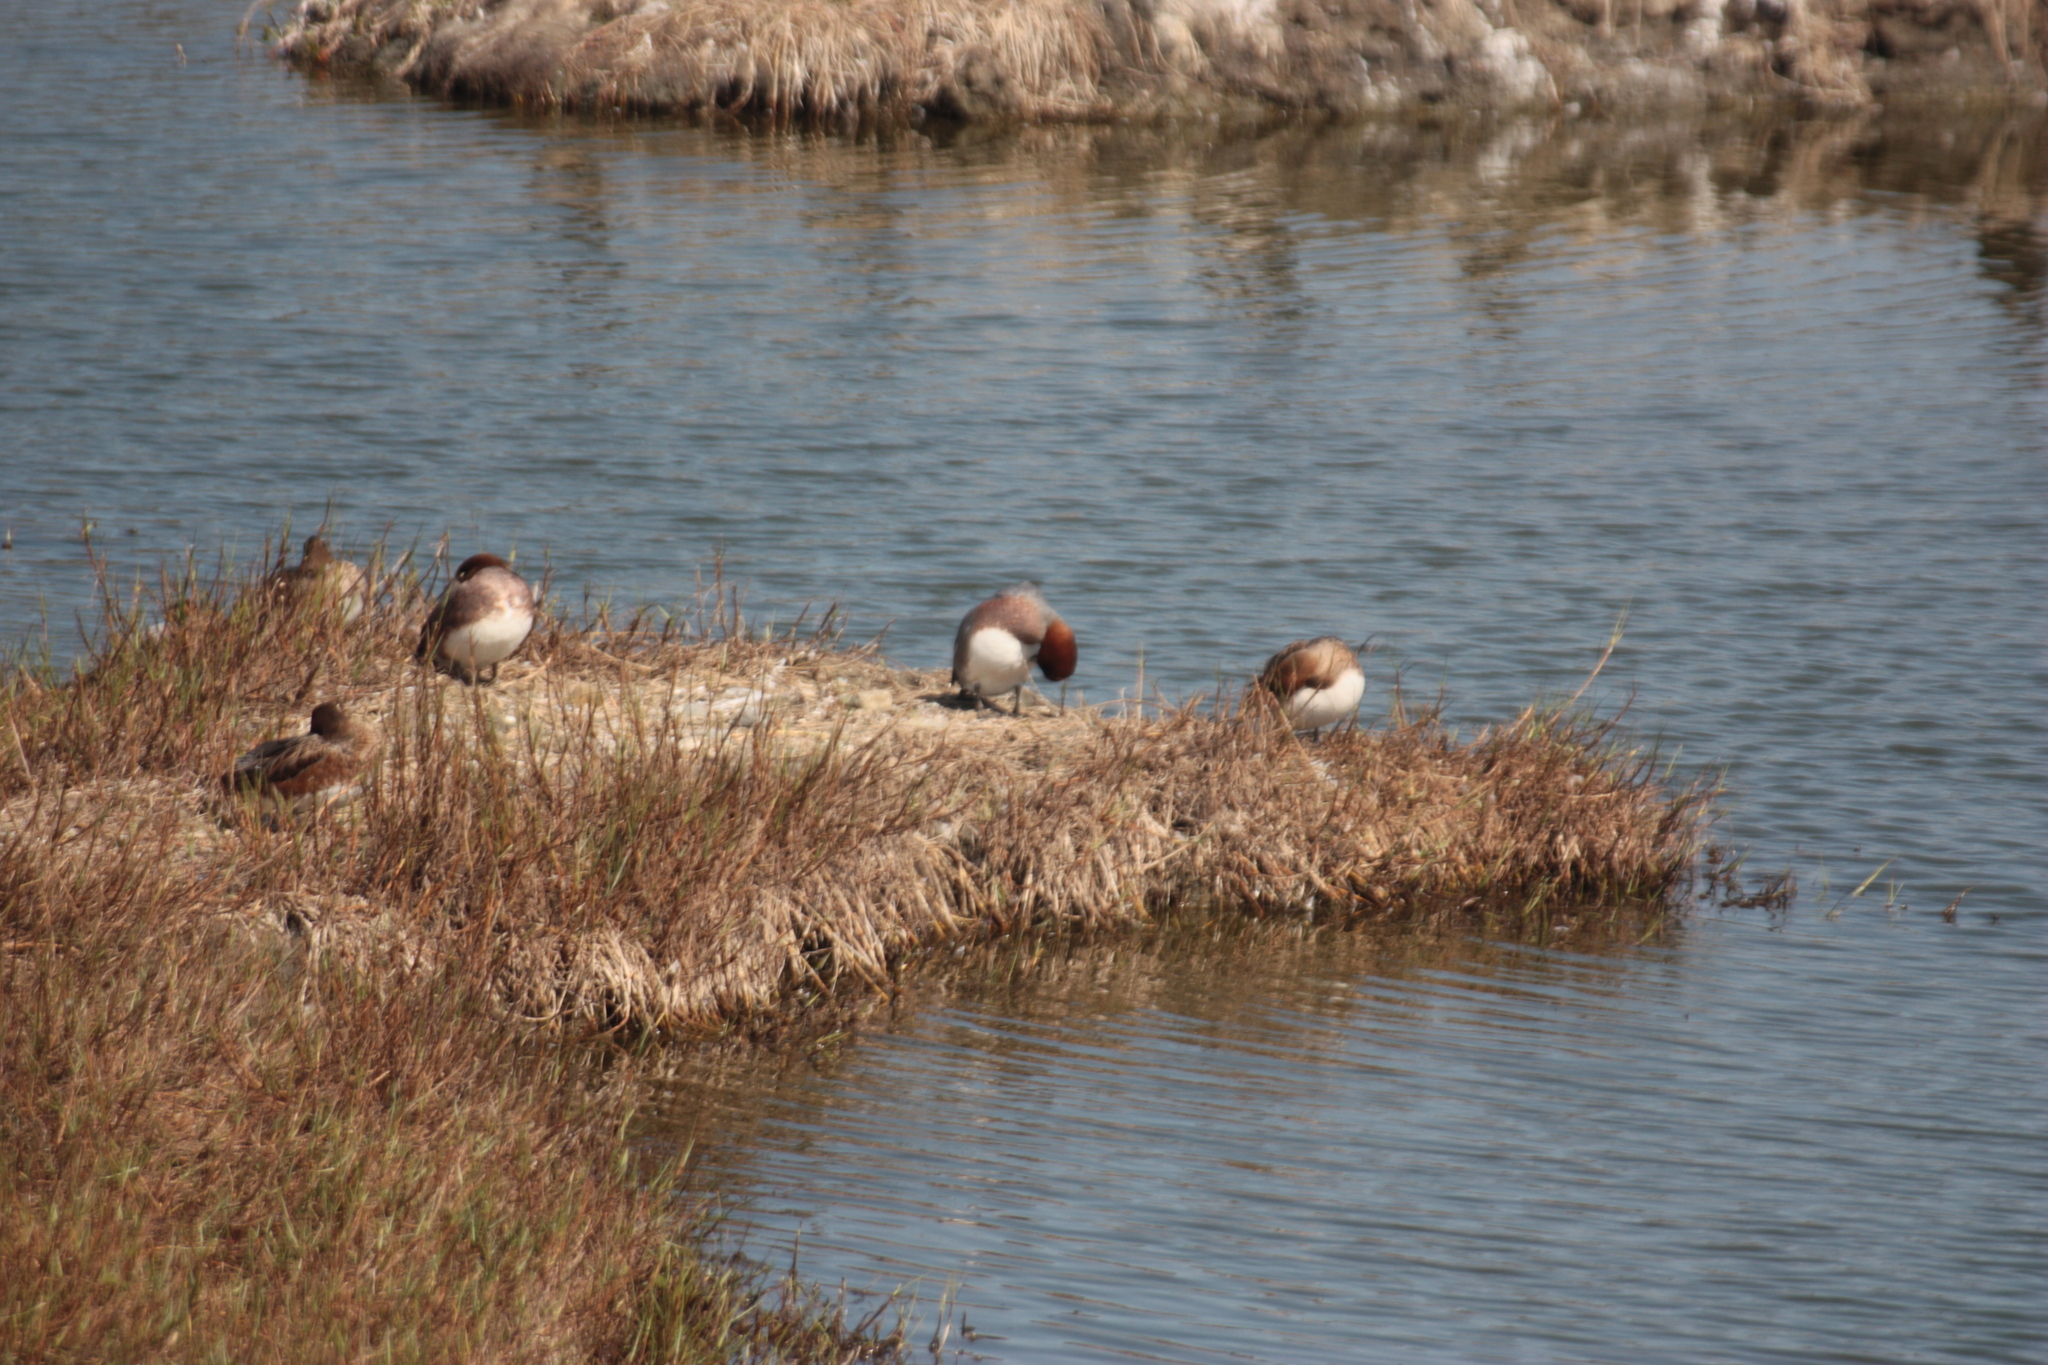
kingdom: Animalia
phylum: Chordata
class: Aves
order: Anseriformes
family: Anatidae
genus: Mareca
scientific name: Mareca penelope
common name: Eurasian wigeon
